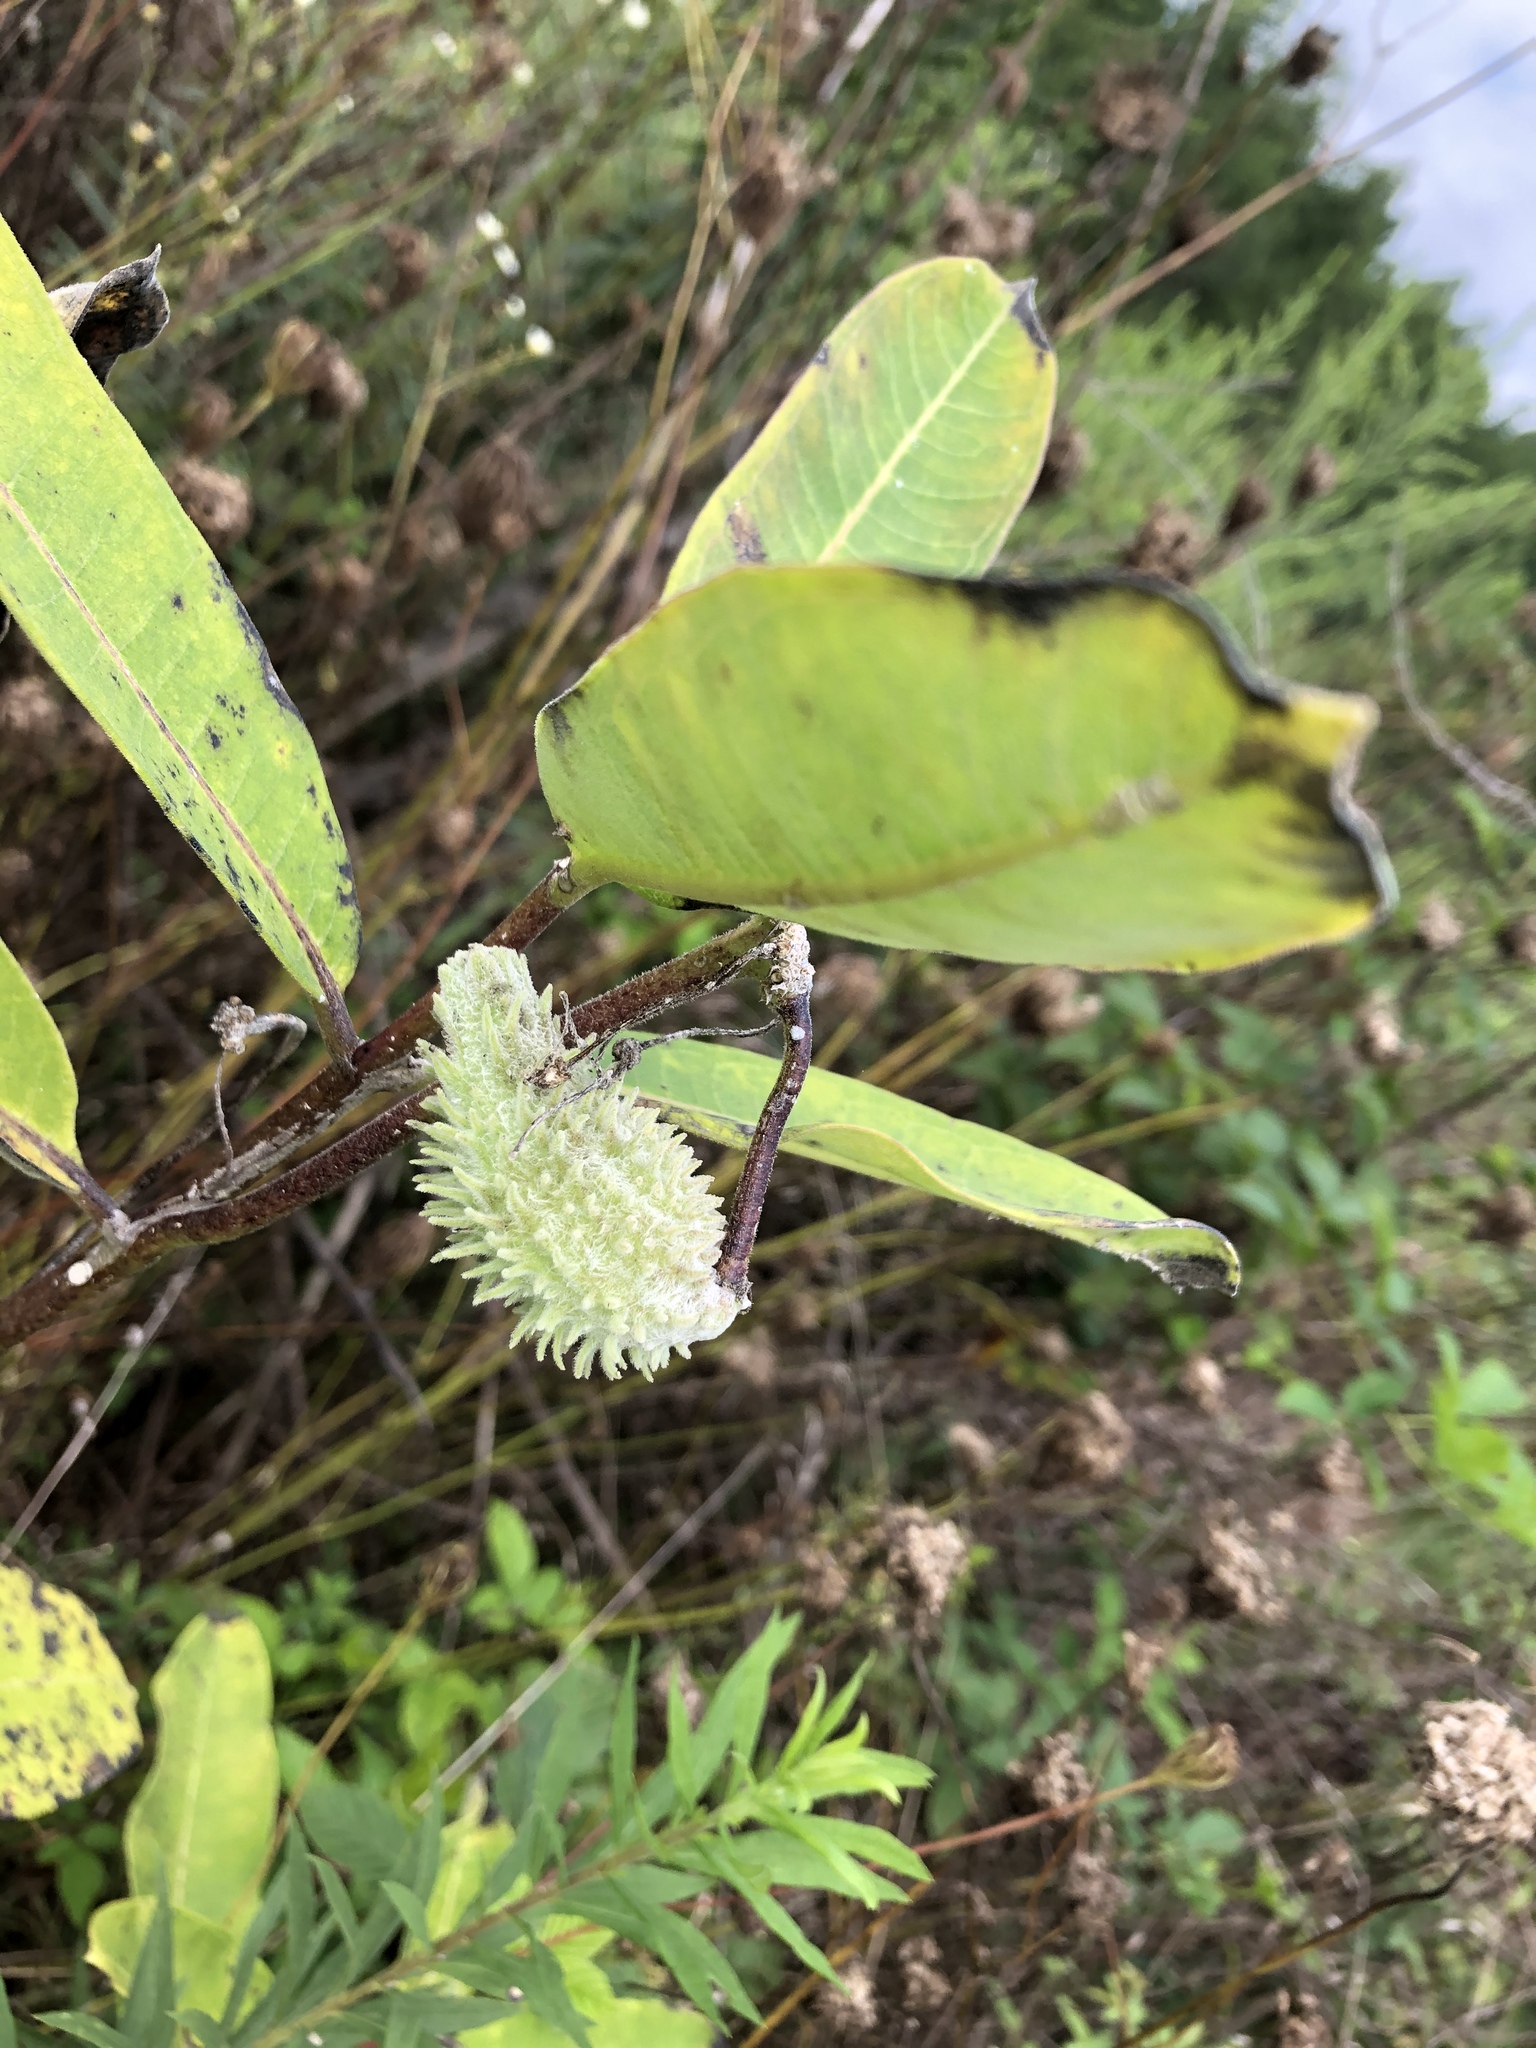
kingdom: Plantae
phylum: Tracheophyta
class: Magnoliopsida
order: Gentianales
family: Apocynaceae
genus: Asclepias
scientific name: Asclepias syriaca
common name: Common milkweed
